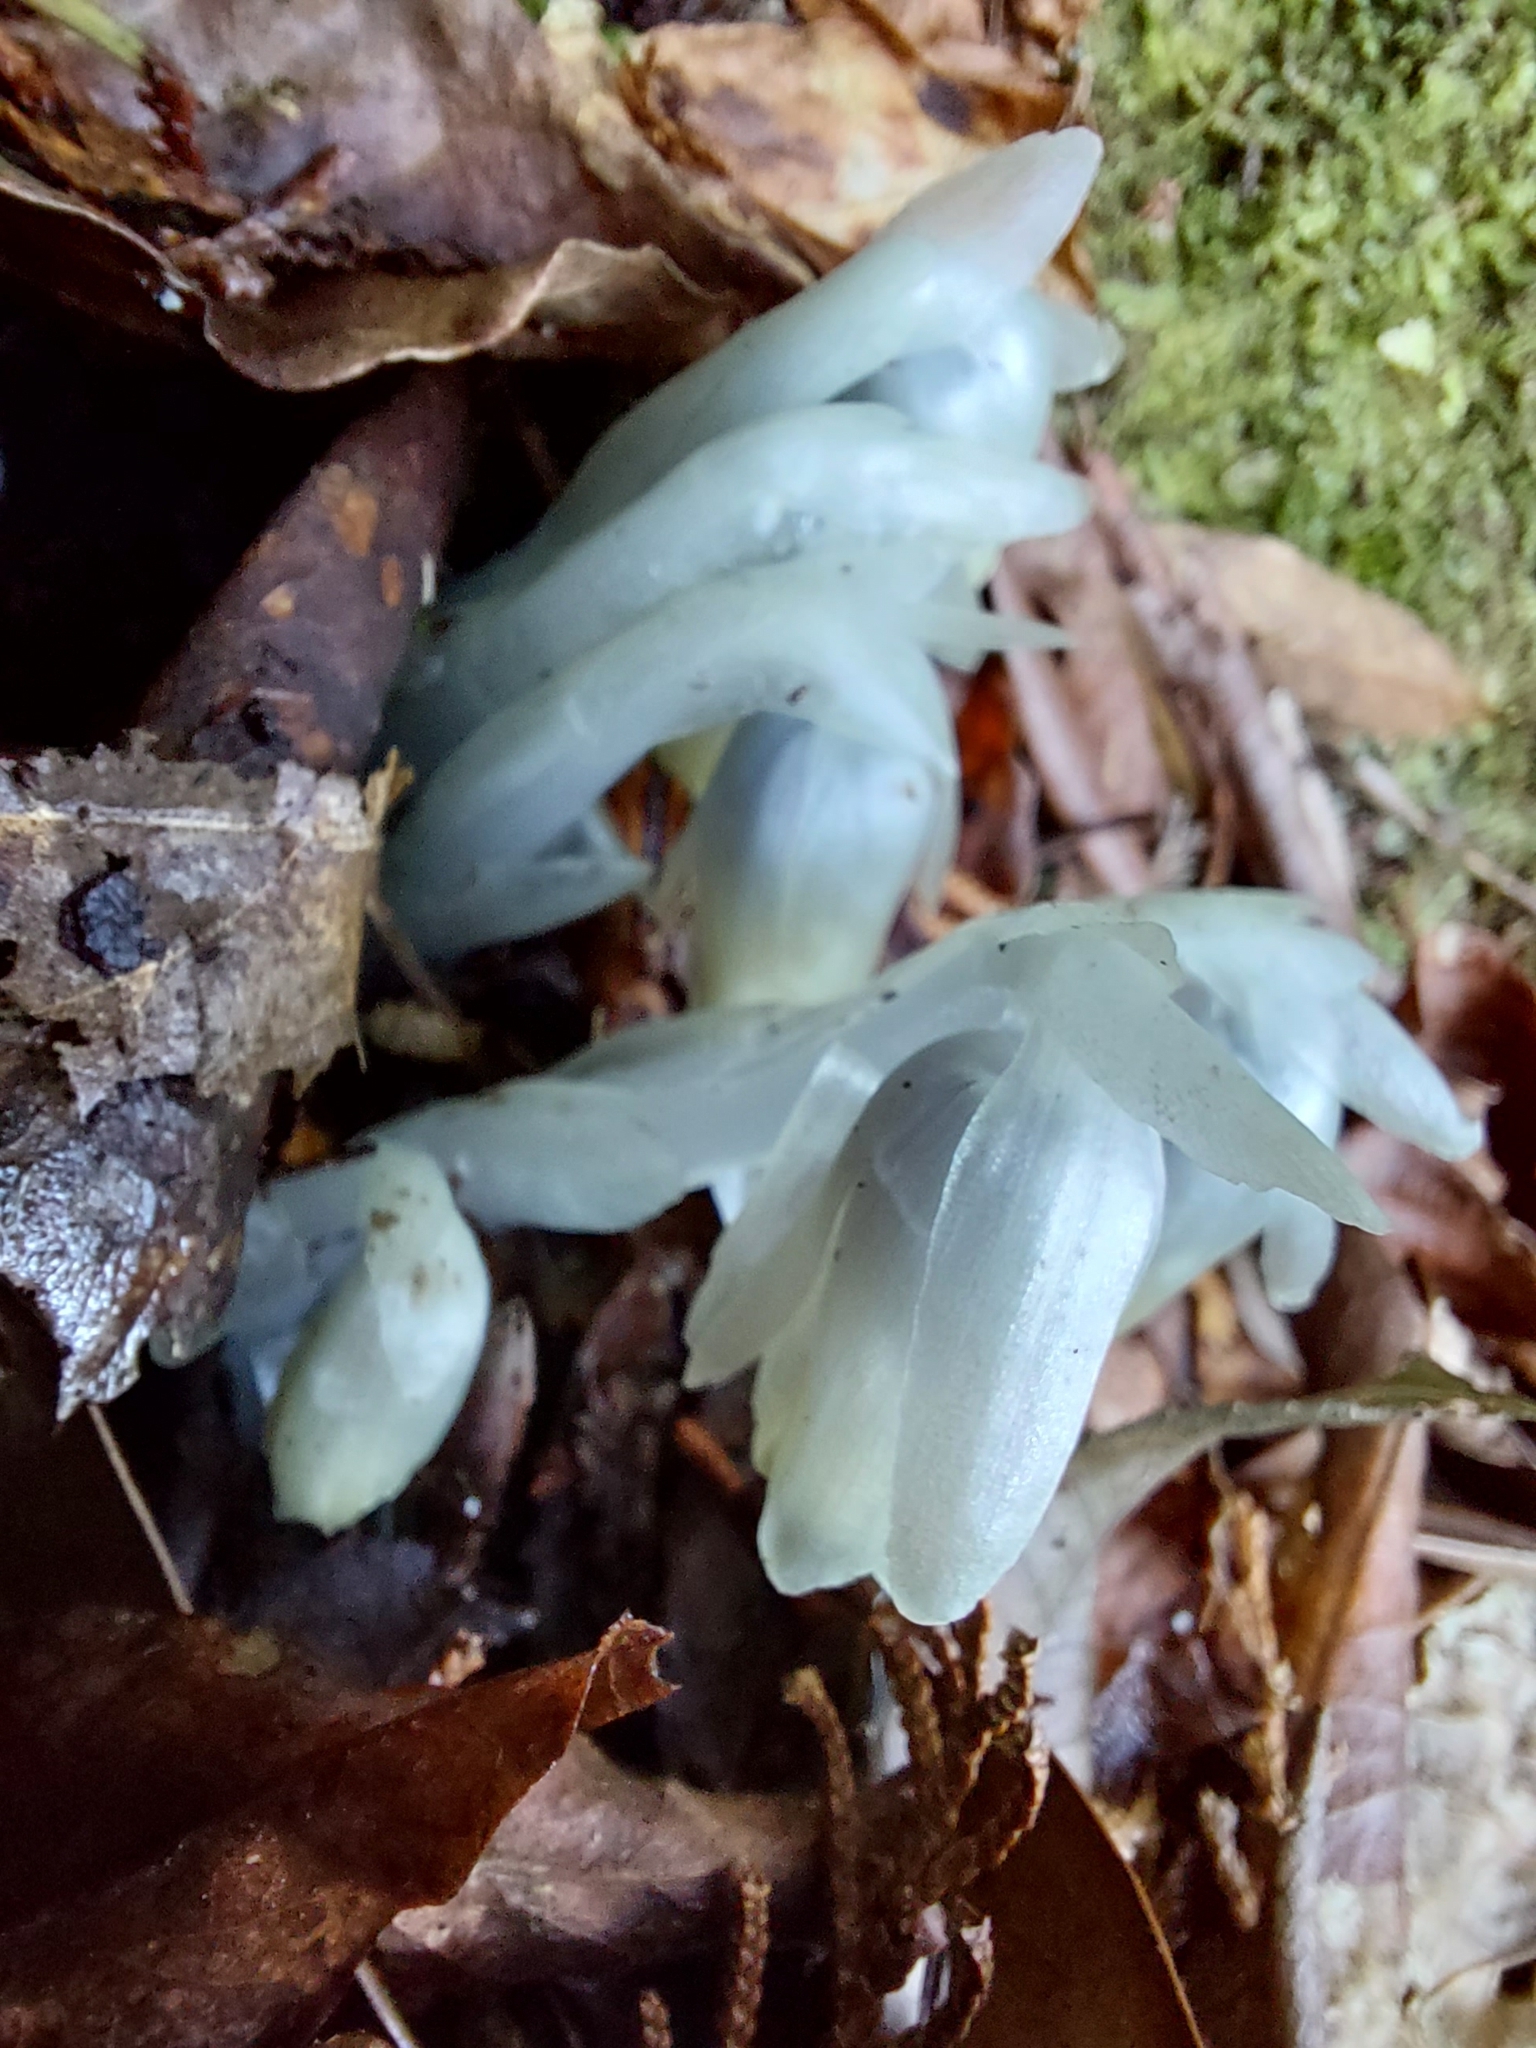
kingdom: Plantae
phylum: Tracheophyta
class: Magnoliopsida
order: Ericales
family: Ericaceae
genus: Monotropastrum
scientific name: Monotropastrum humile
